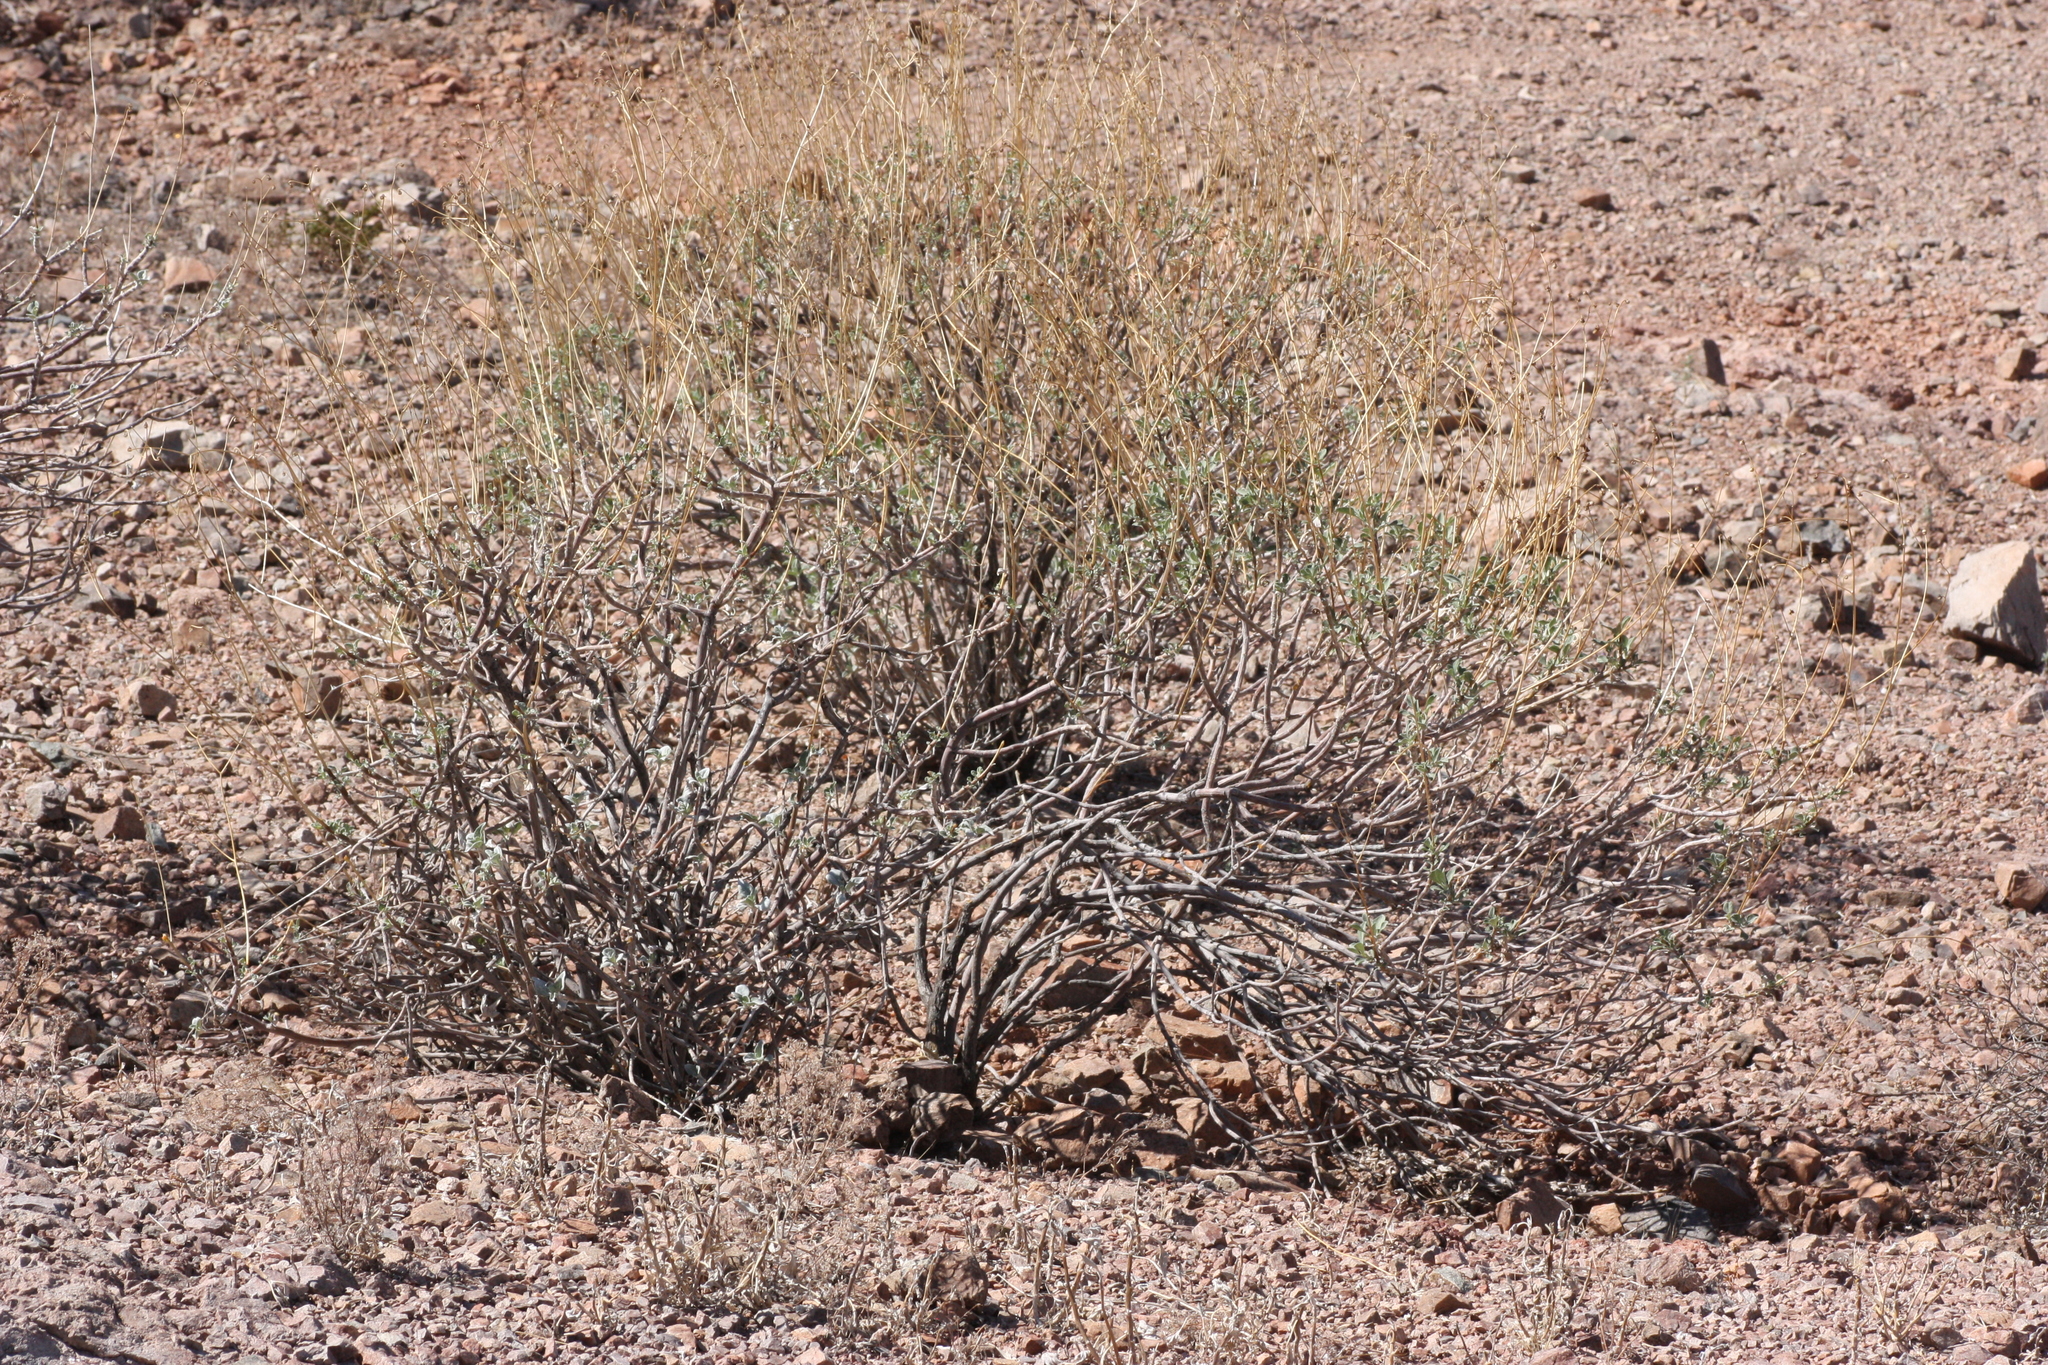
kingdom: Plantae
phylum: Tracheophyta
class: Magnoliopsida
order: Asterales
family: Asteraceae
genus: Encelia
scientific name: Encelia farinosa
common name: Brittlebush
